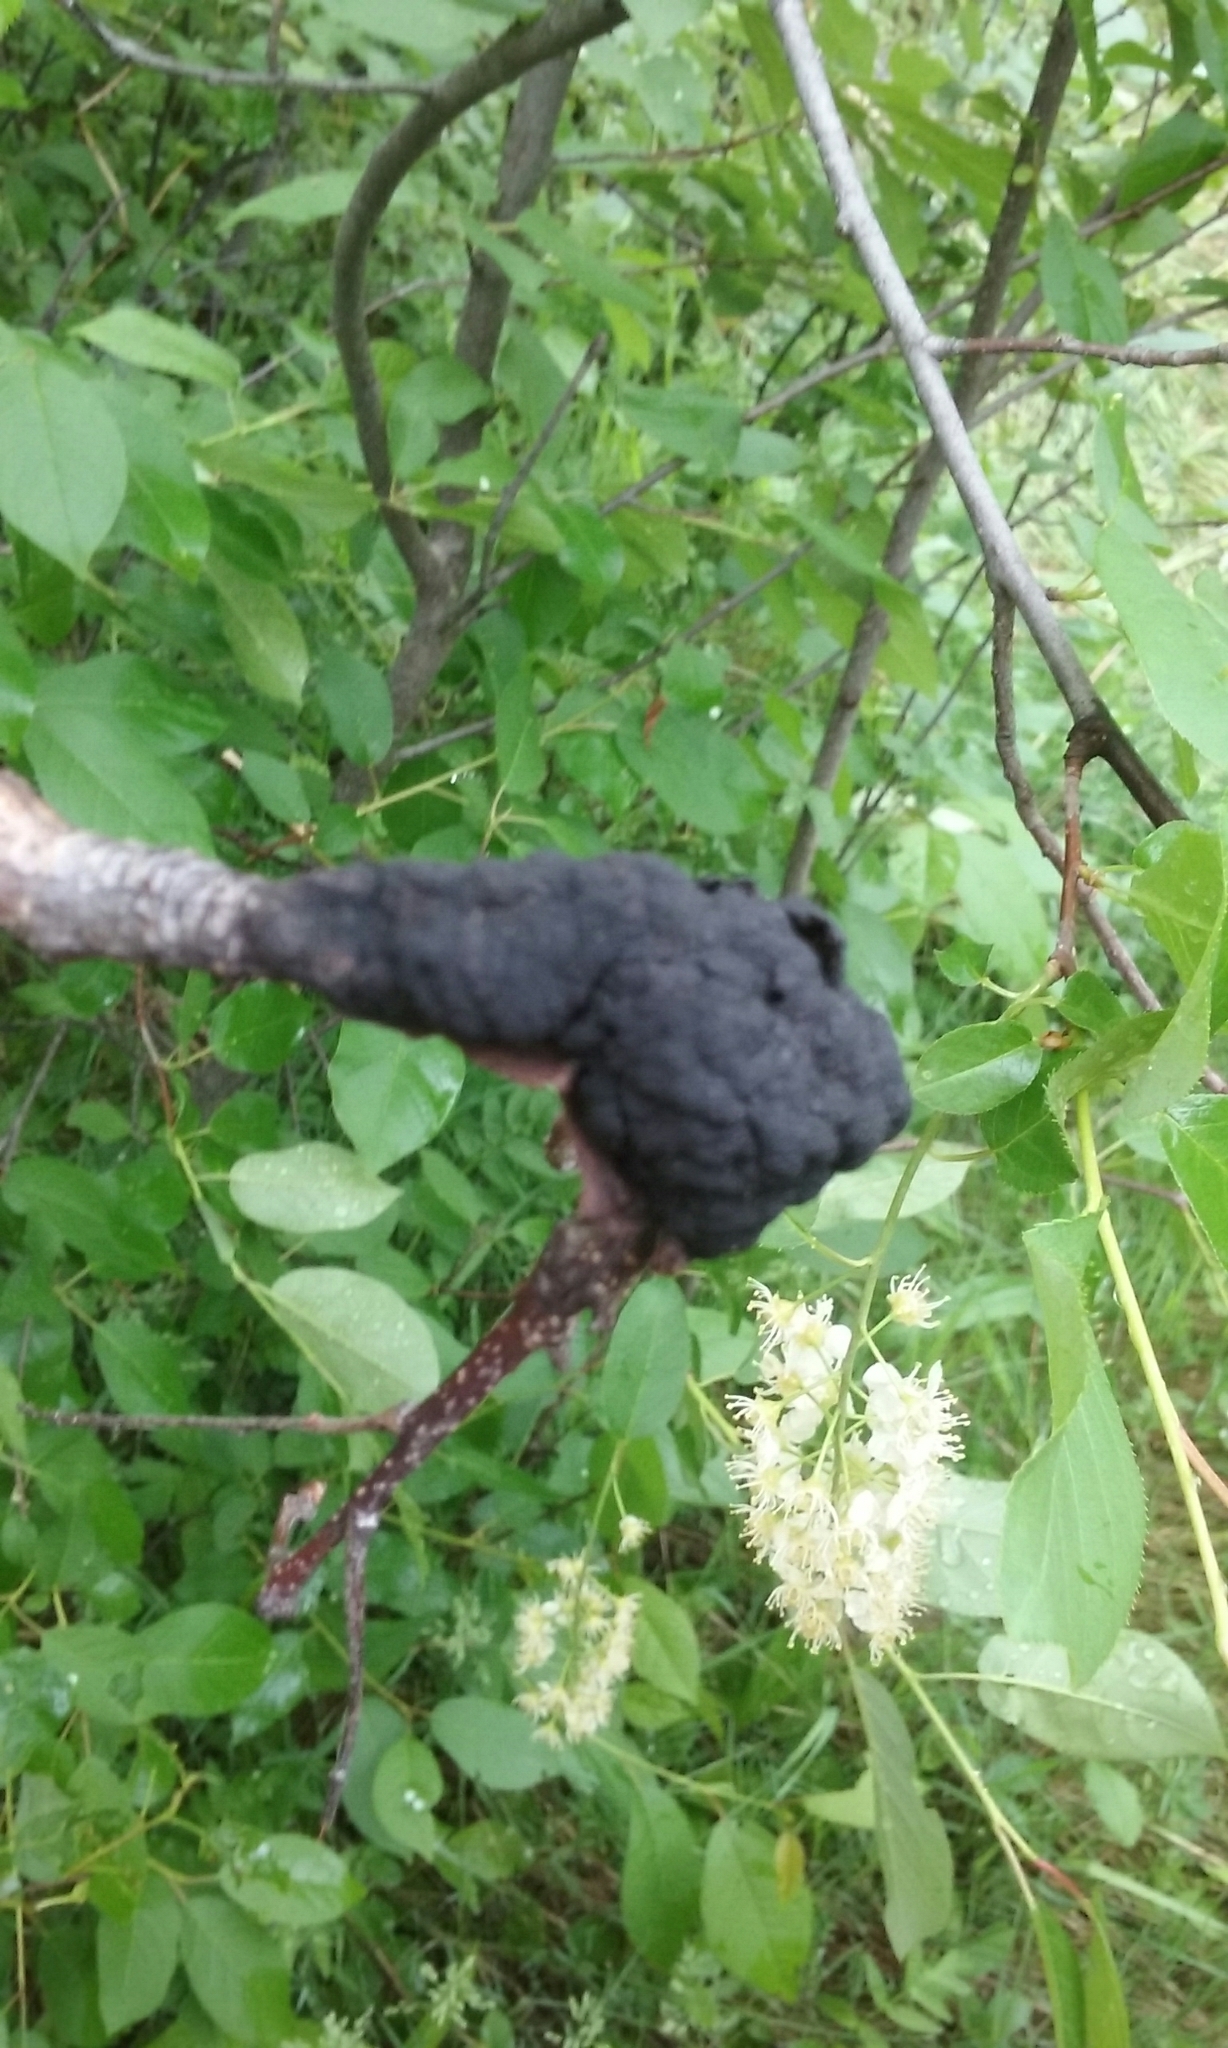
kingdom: Fungi
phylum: Ascomycota
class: Dothideomycetes
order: Venturiales
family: Venturiaceae
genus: Apiosporina
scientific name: Apiosporina morbosa
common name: Black knot
